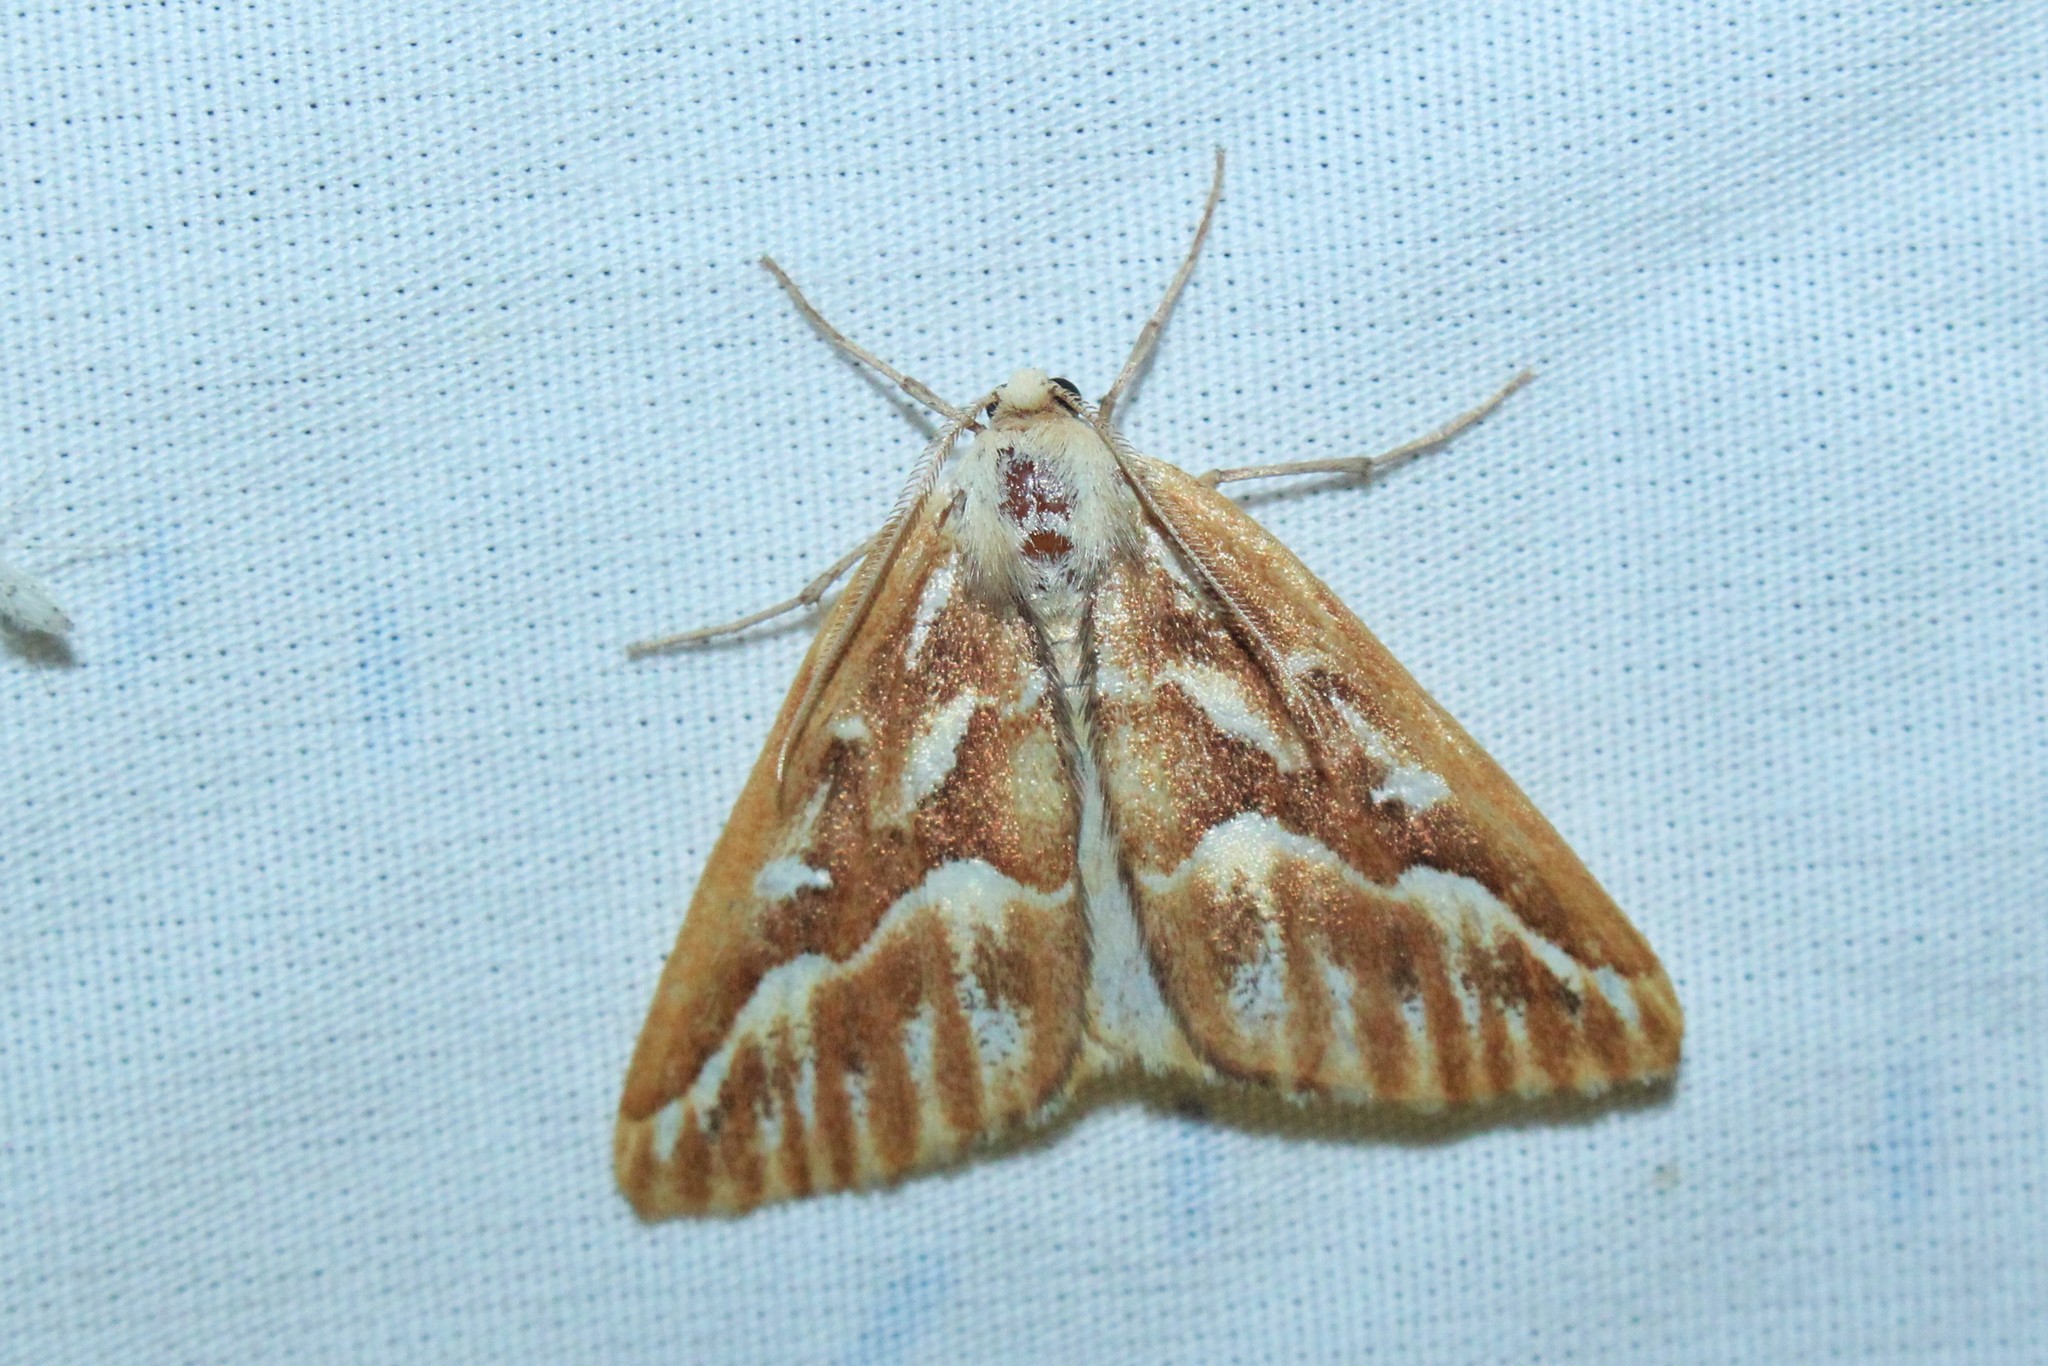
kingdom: Animalia
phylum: Arthropoda
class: Insecta
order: Lepidoptera
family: Geometridae
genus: Caripeta
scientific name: Caripeta piniata
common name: Northern pine looper moth
